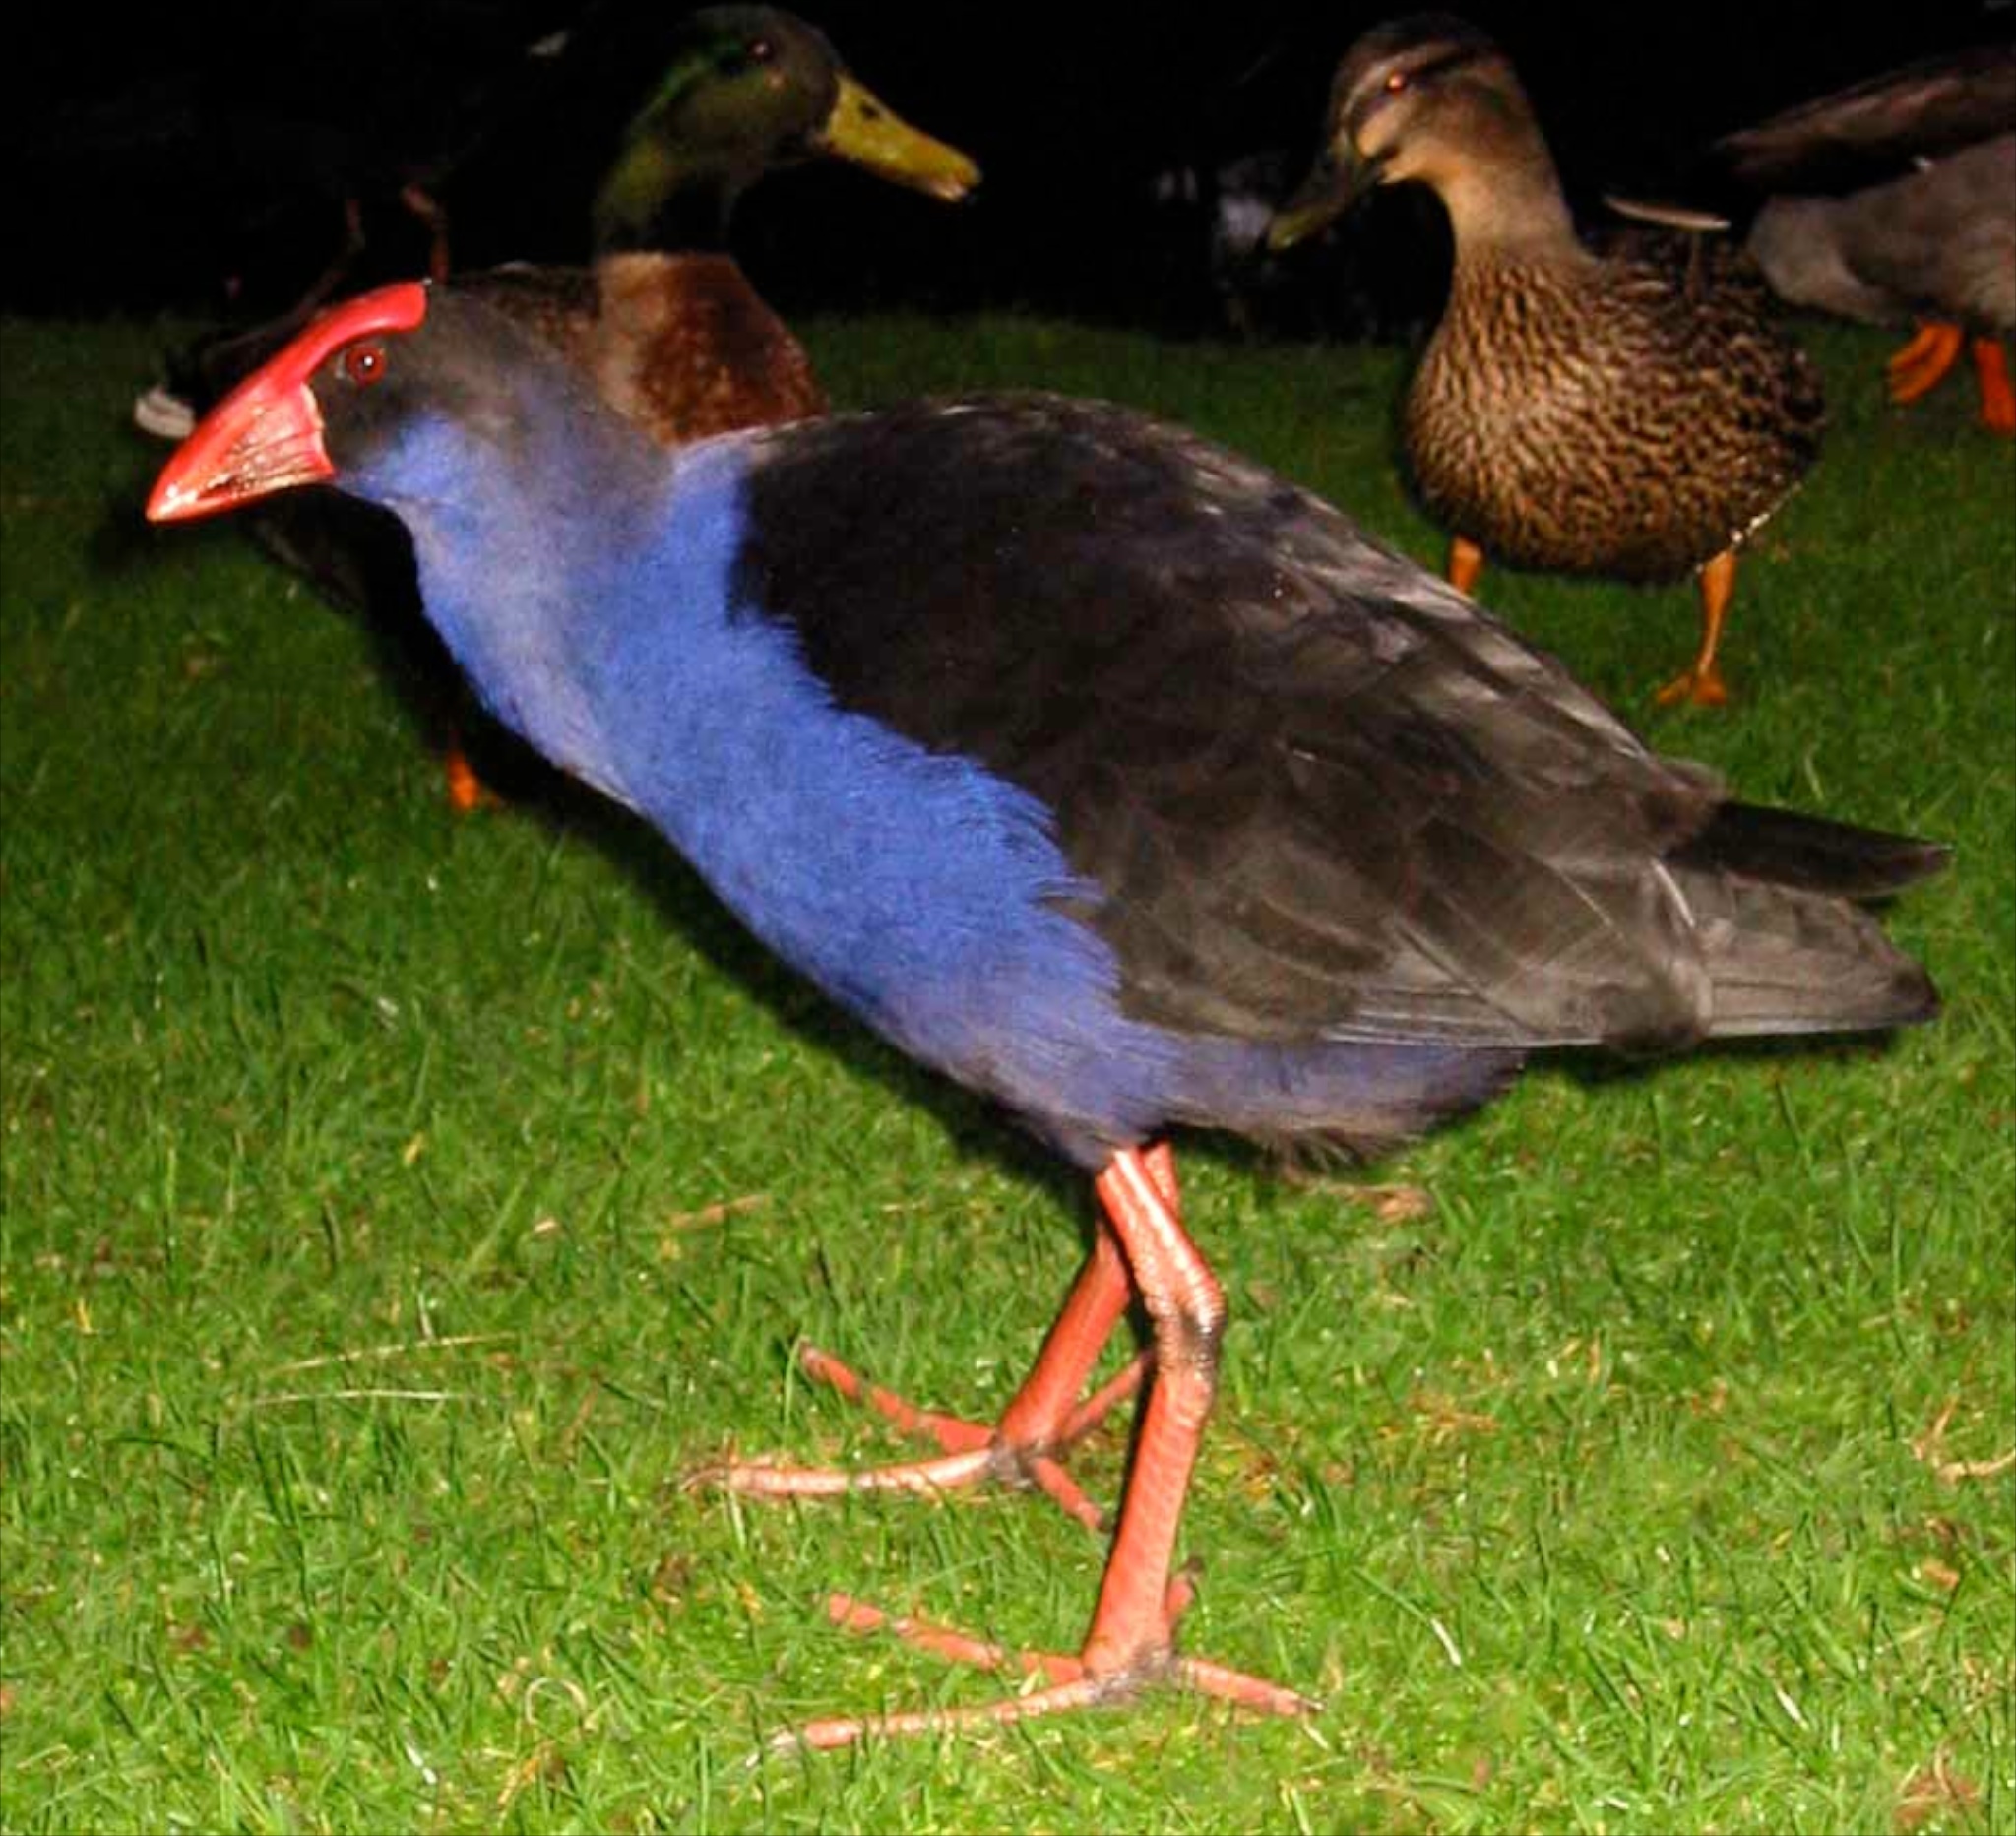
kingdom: Animalia
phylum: Chordata
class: Aves
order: Gruiformes
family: Rallidae
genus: Porphyrio
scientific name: Porphyrio melanotus
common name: Australasian swamphen
